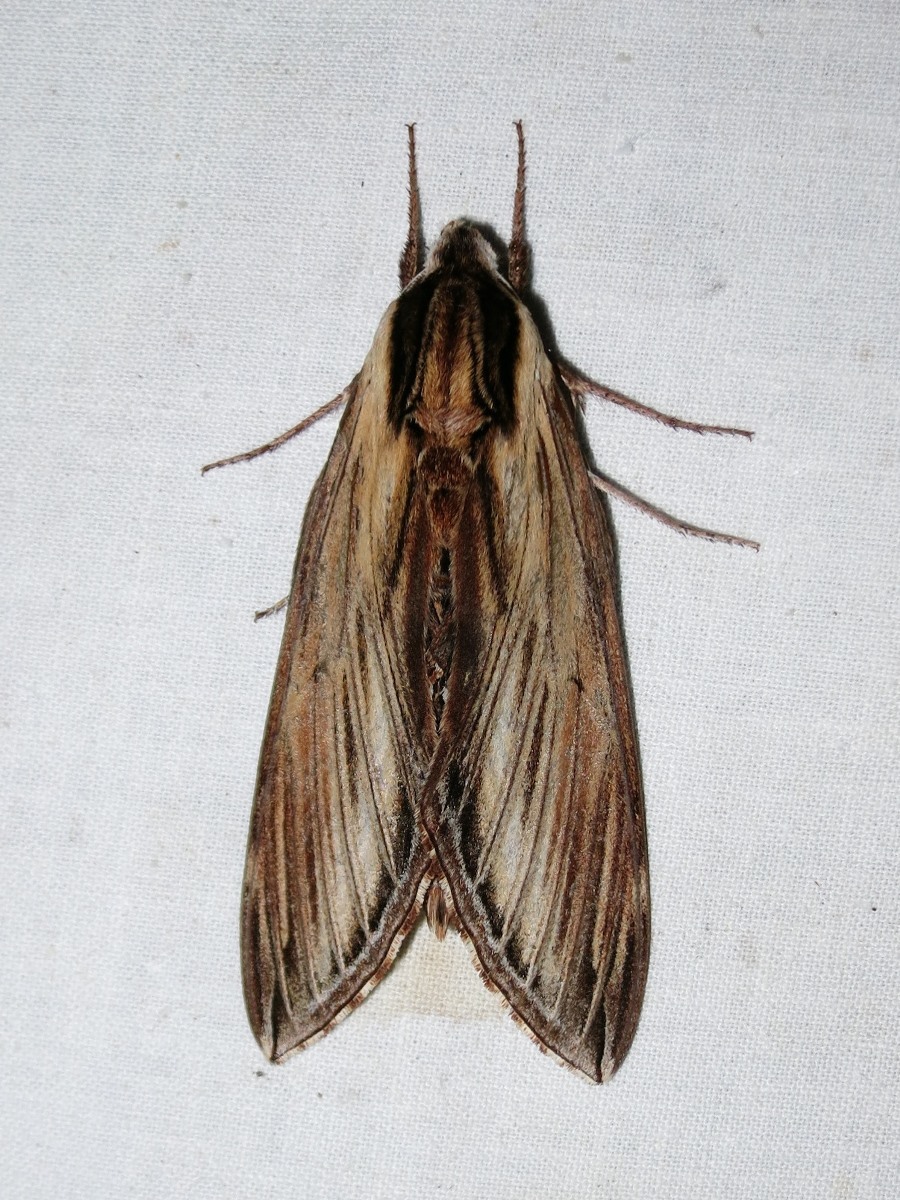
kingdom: Animalia
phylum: Arthropoda
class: Insecta
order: Lepidoptera
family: Sphingidae
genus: Sphinx
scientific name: Sphinx kalmiae
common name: Laurel sphinx
